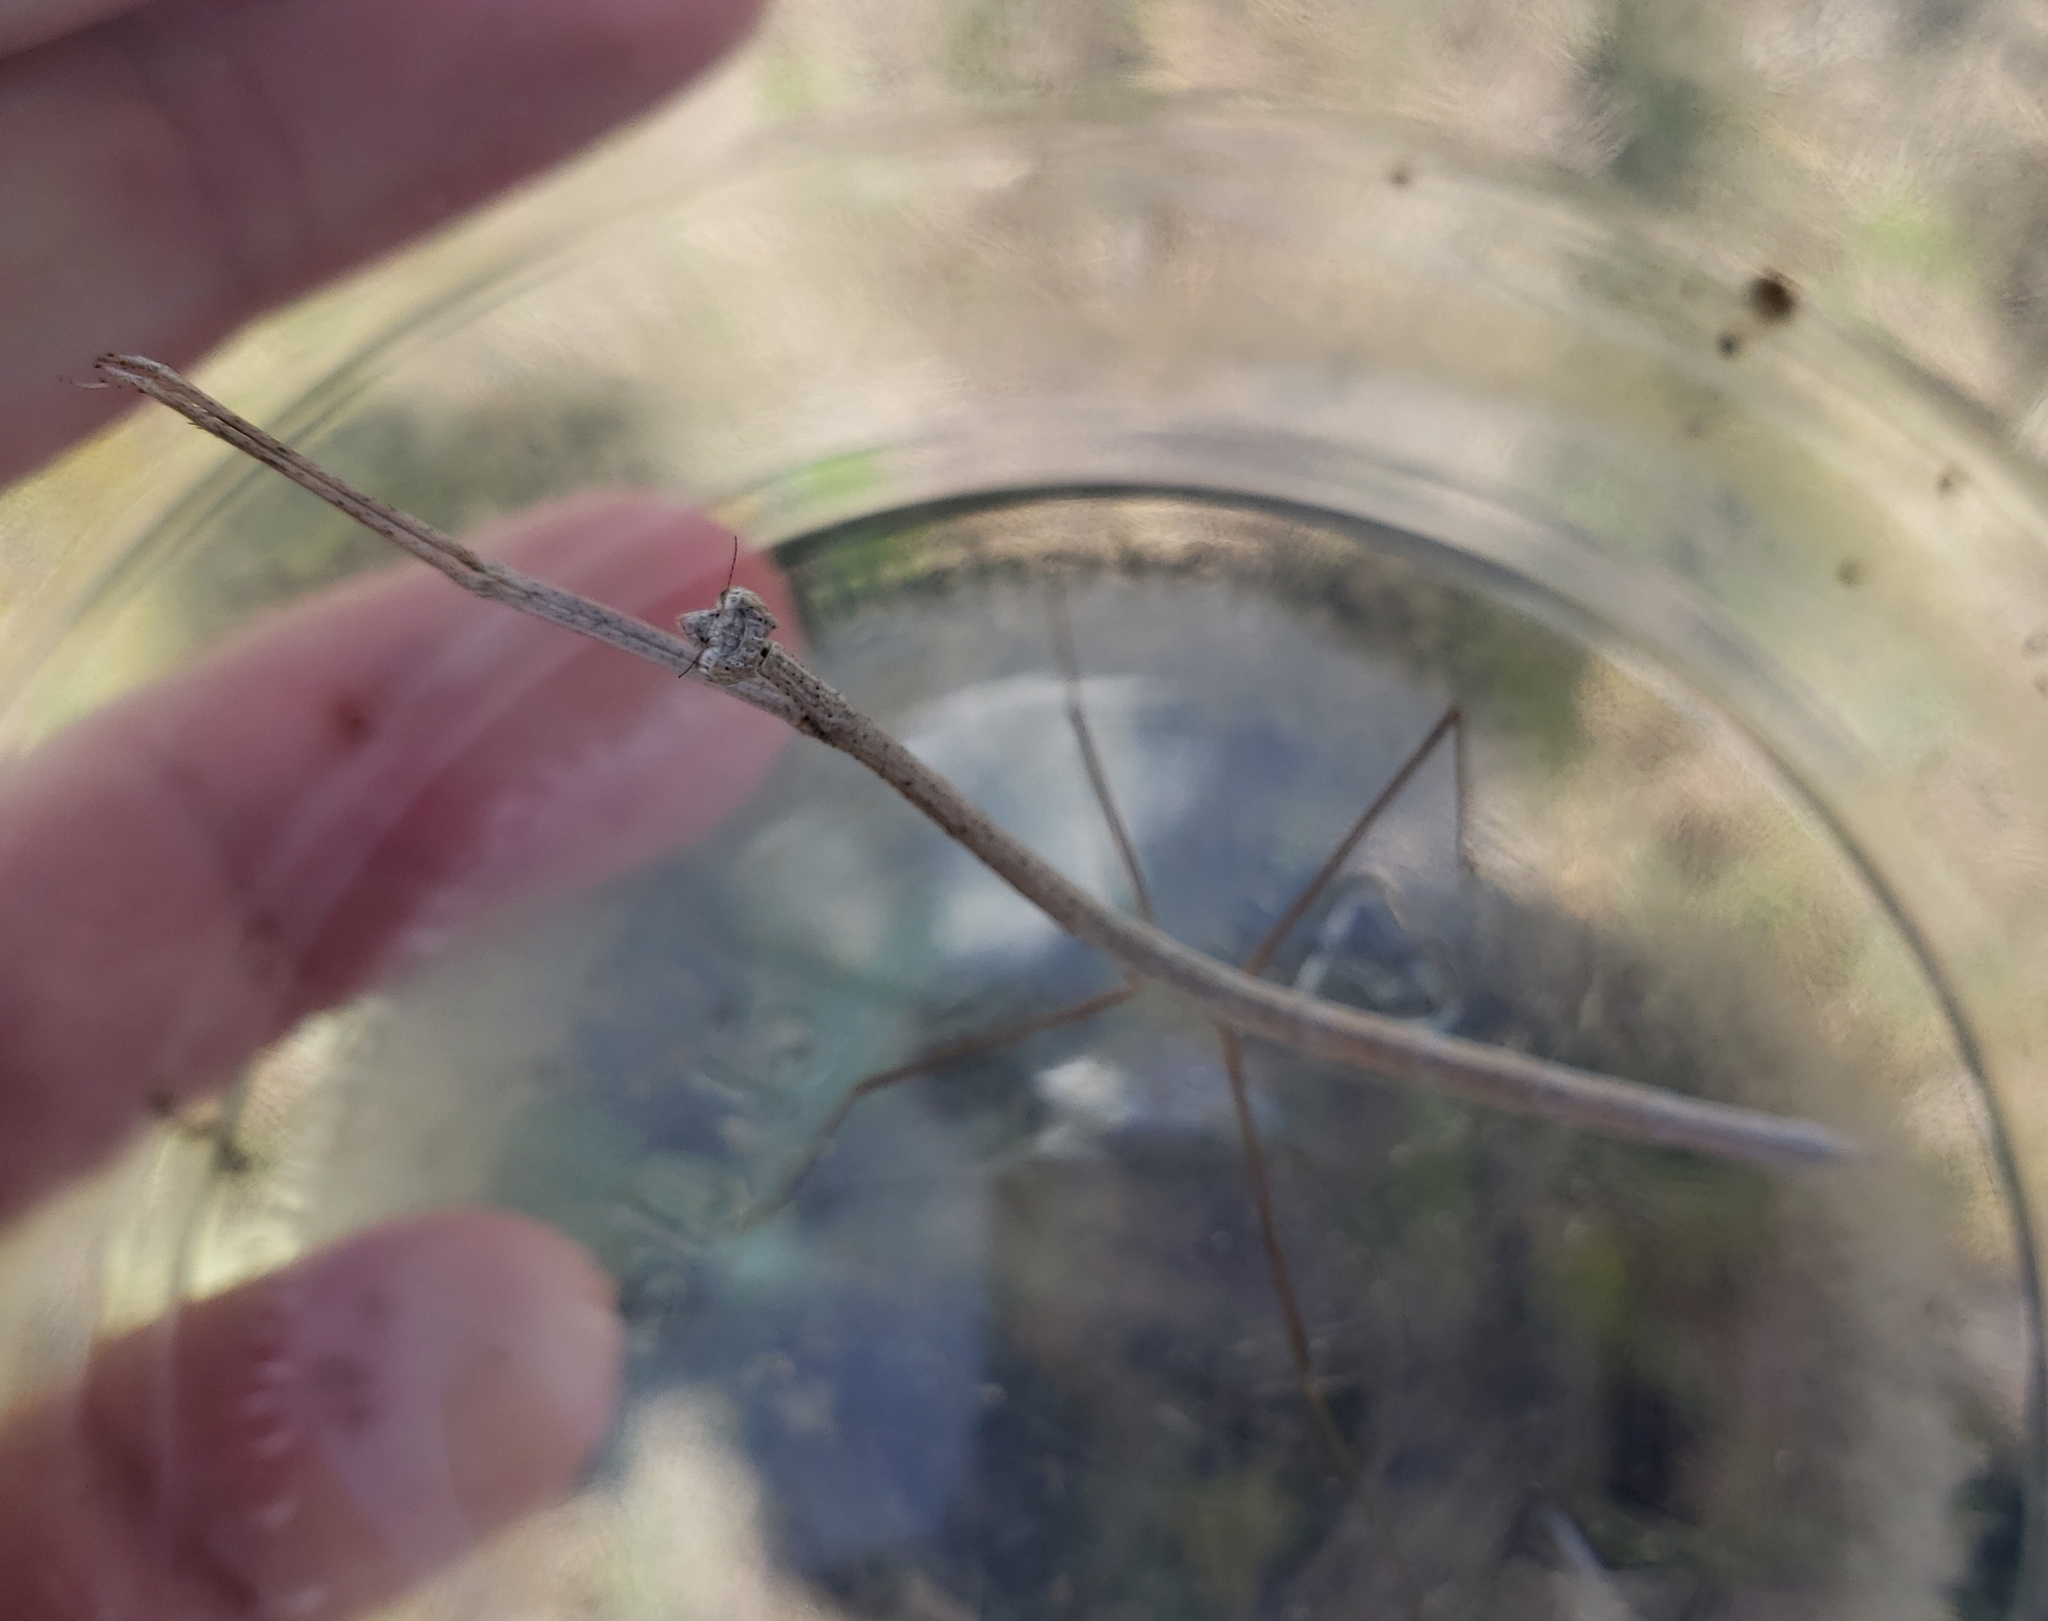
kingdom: Animalia
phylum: Arthropoda
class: Insecta
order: Mantodea
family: Thespidae
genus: Thesprotia
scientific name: Thesprotia graminis
